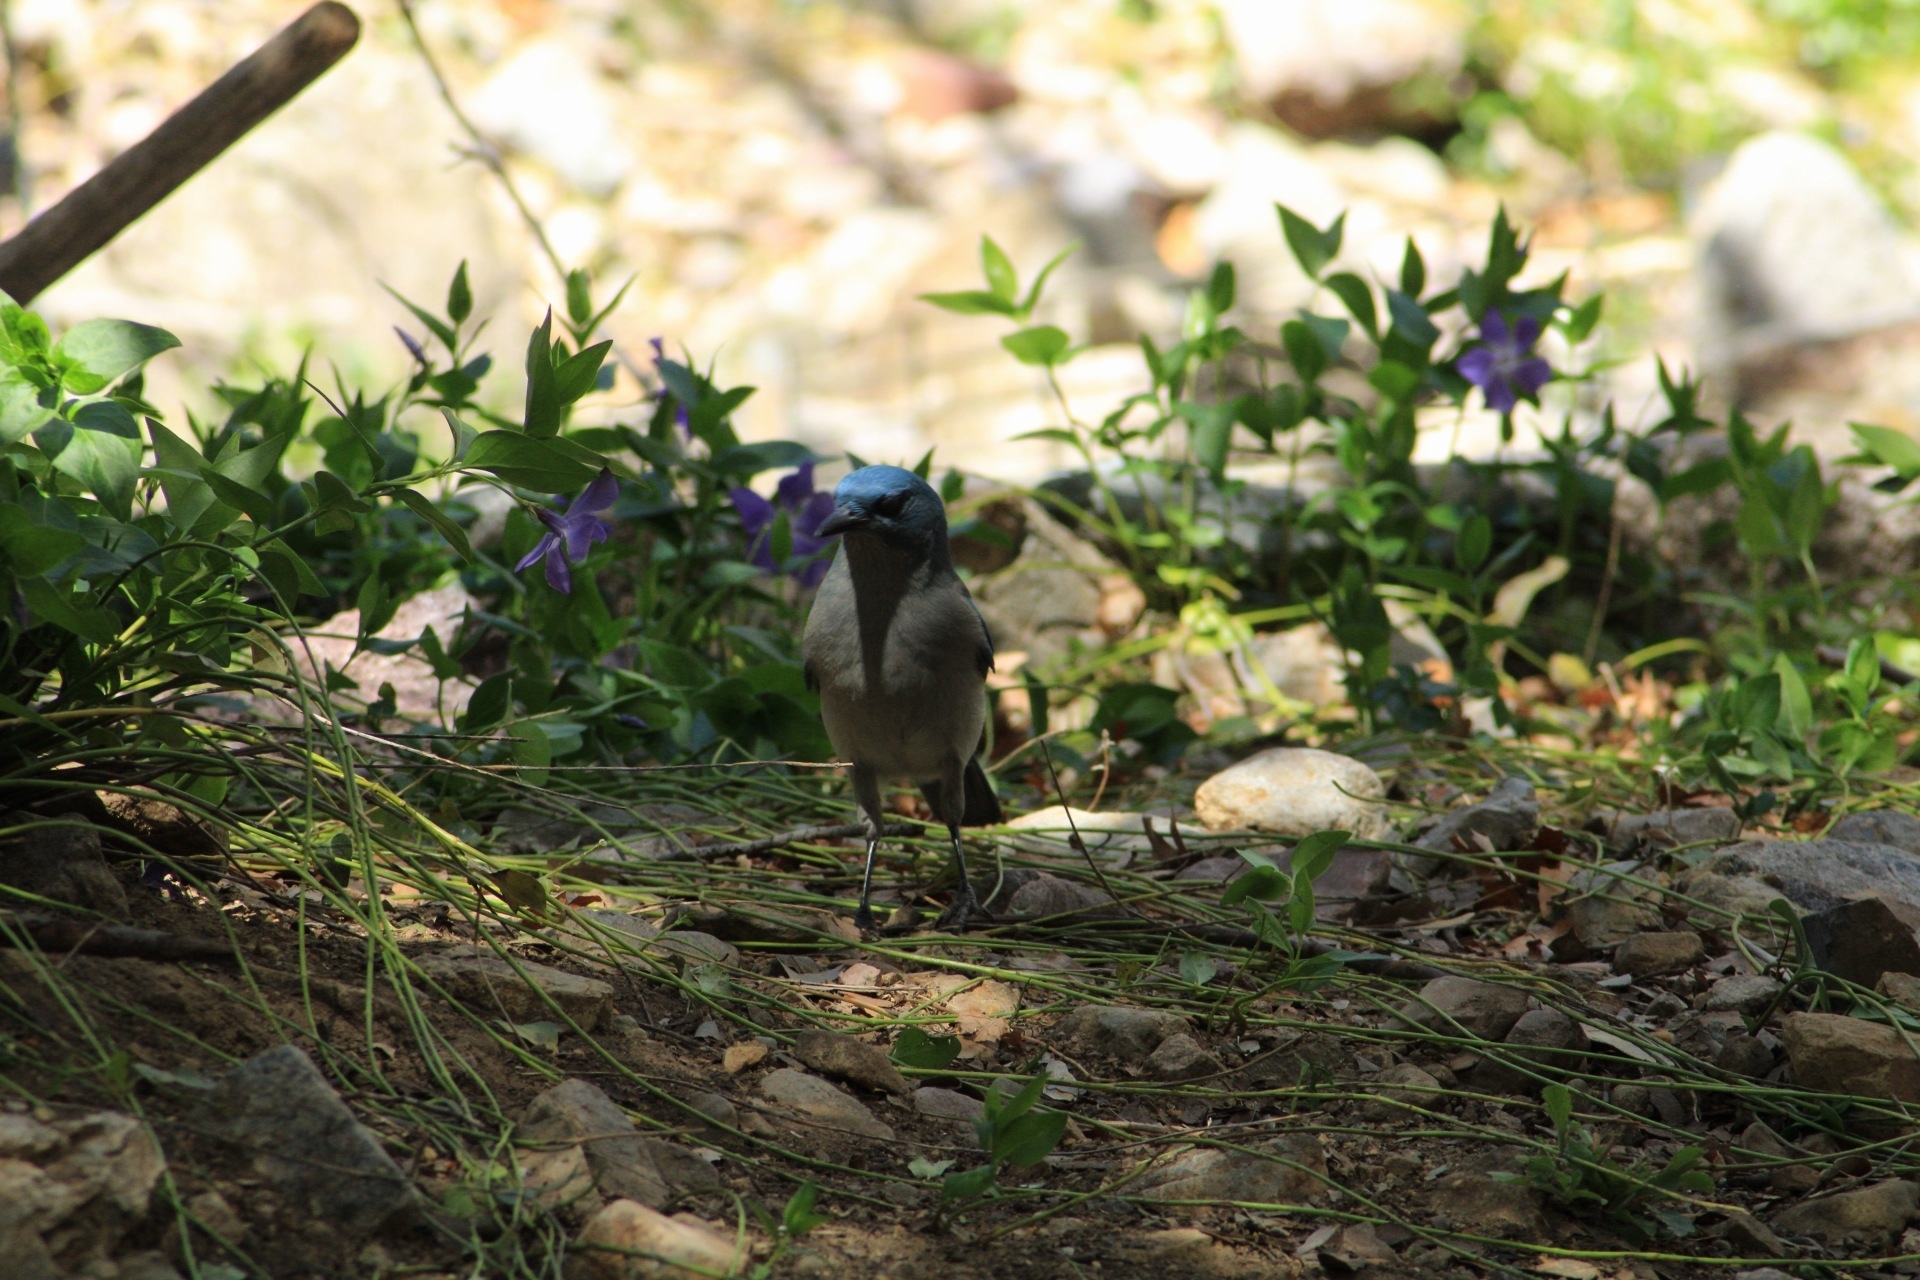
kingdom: Animalia
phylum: Chordata
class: Aves
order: Passeriformes
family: Corvidae
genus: Aphelocoma
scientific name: Aphelocoma wollweberi
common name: Mexican jay
